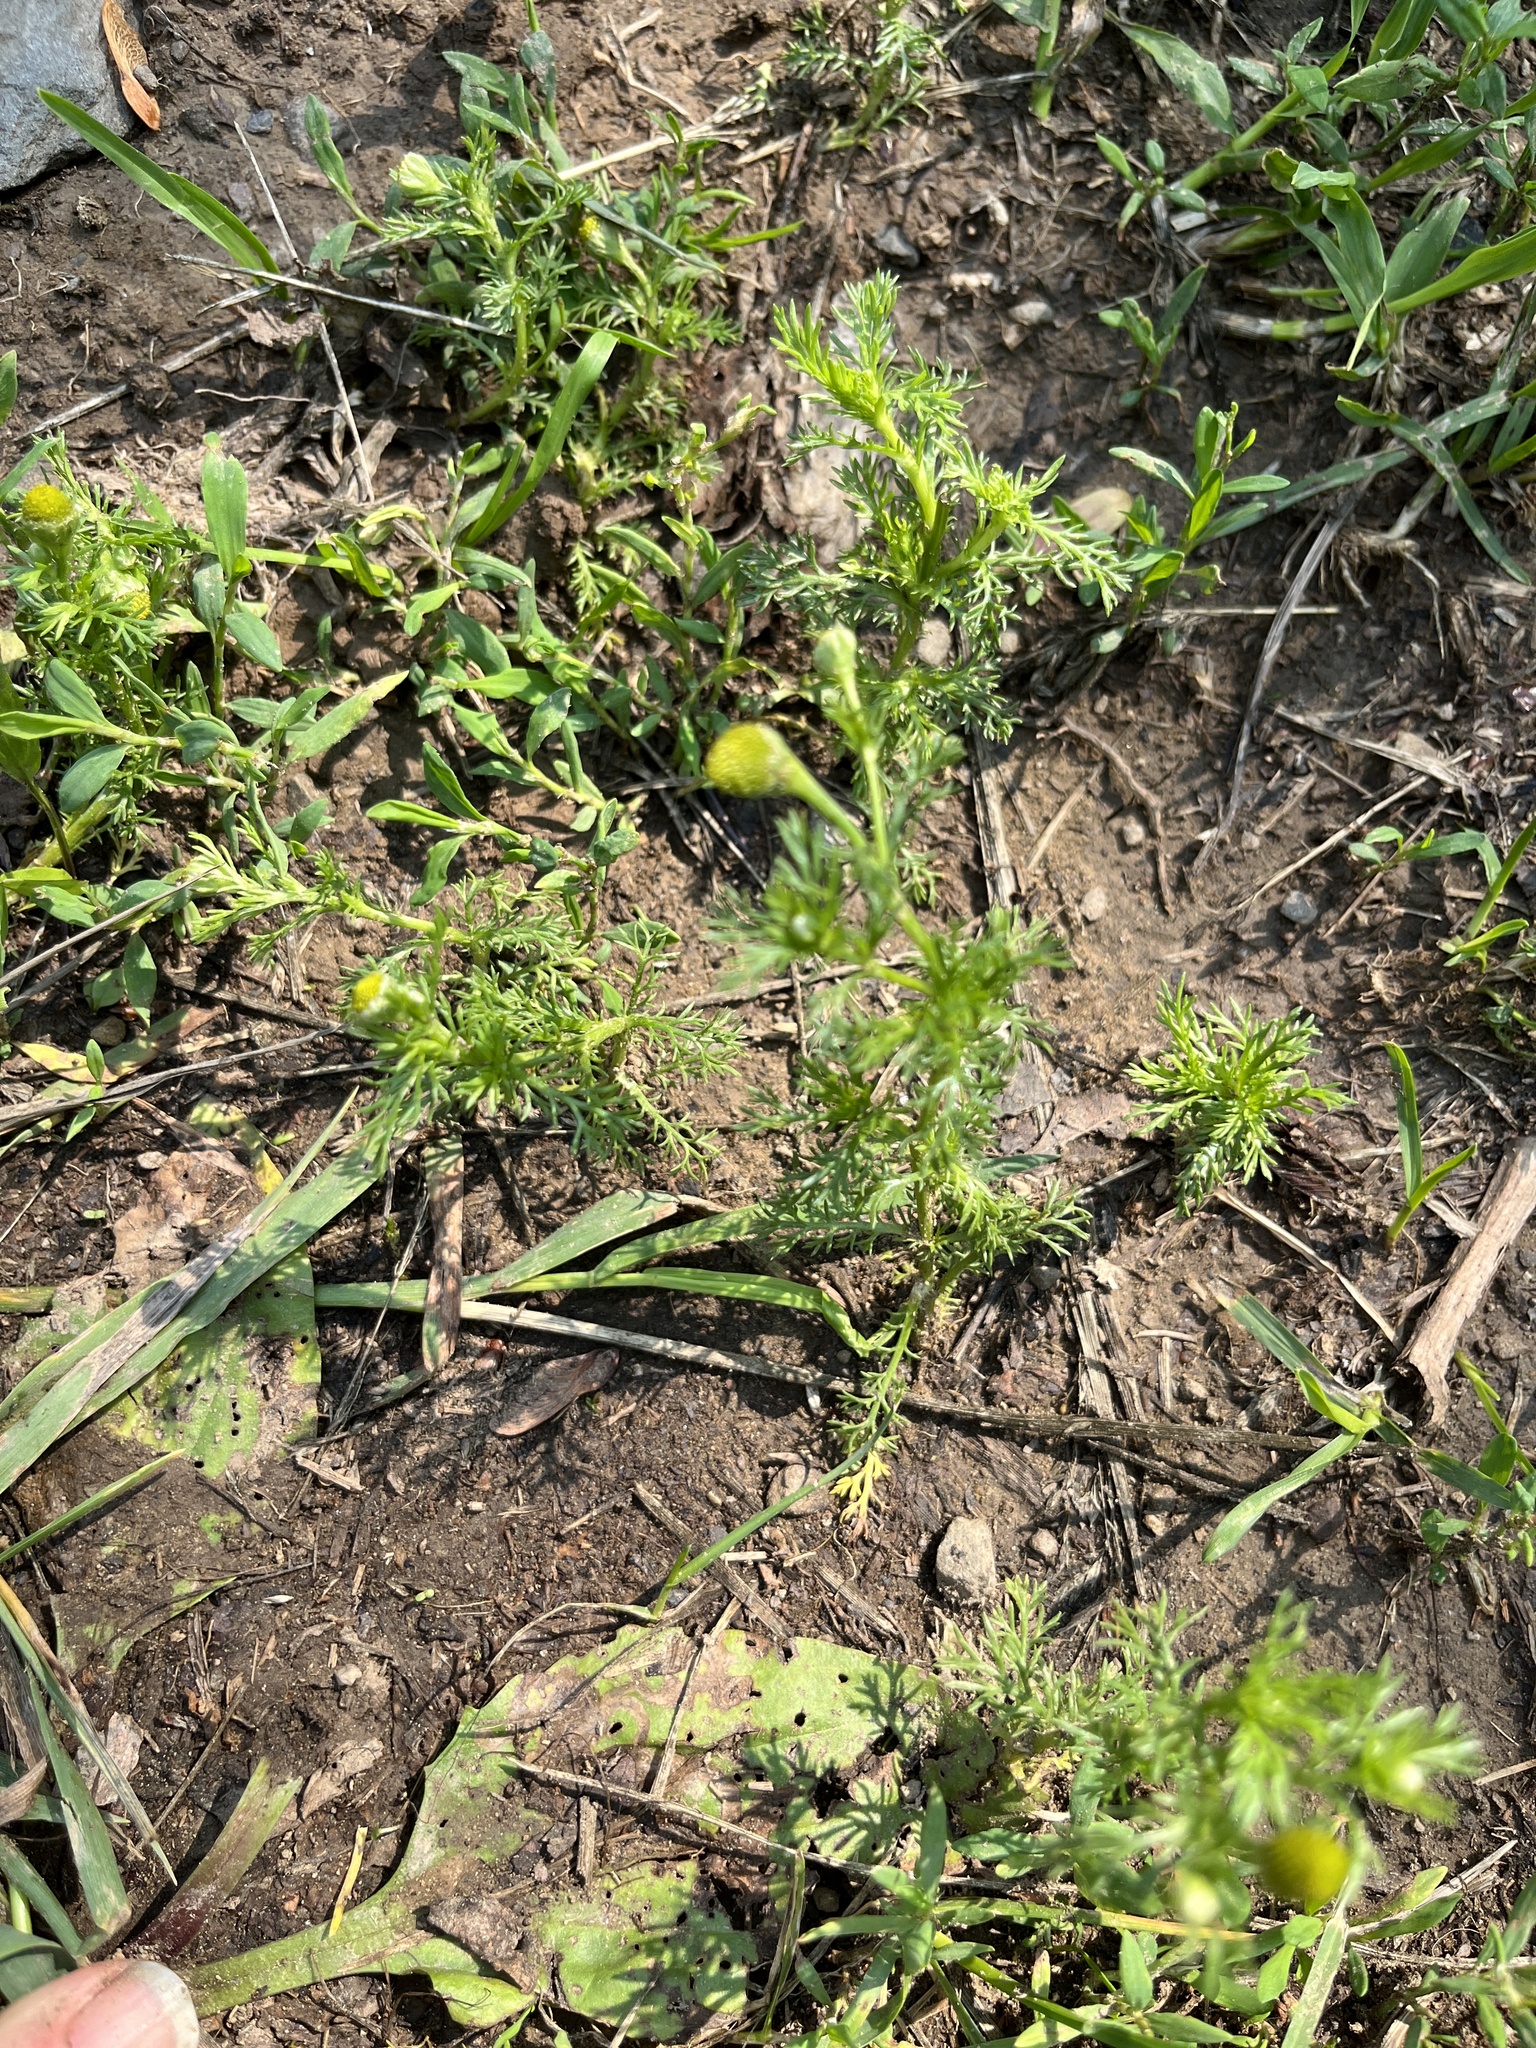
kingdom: Plantae
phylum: Tracheophyta
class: Magnoliopsida
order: Asterales
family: Asteraceae
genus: Matricaria
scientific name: Matricaria discoidea
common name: Disc mayweed
